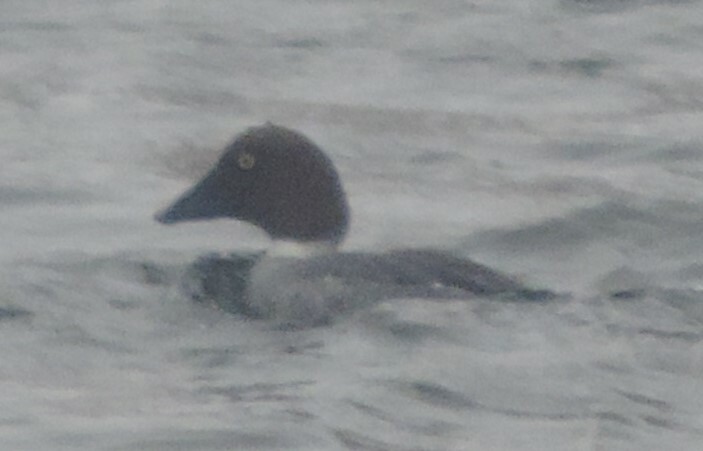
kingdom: Animalia
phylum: Chordata
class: Aves
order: Anseriformes
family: Anatidae
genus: Bucephala
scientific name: Bucephala clangula
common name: Common goldeneye
